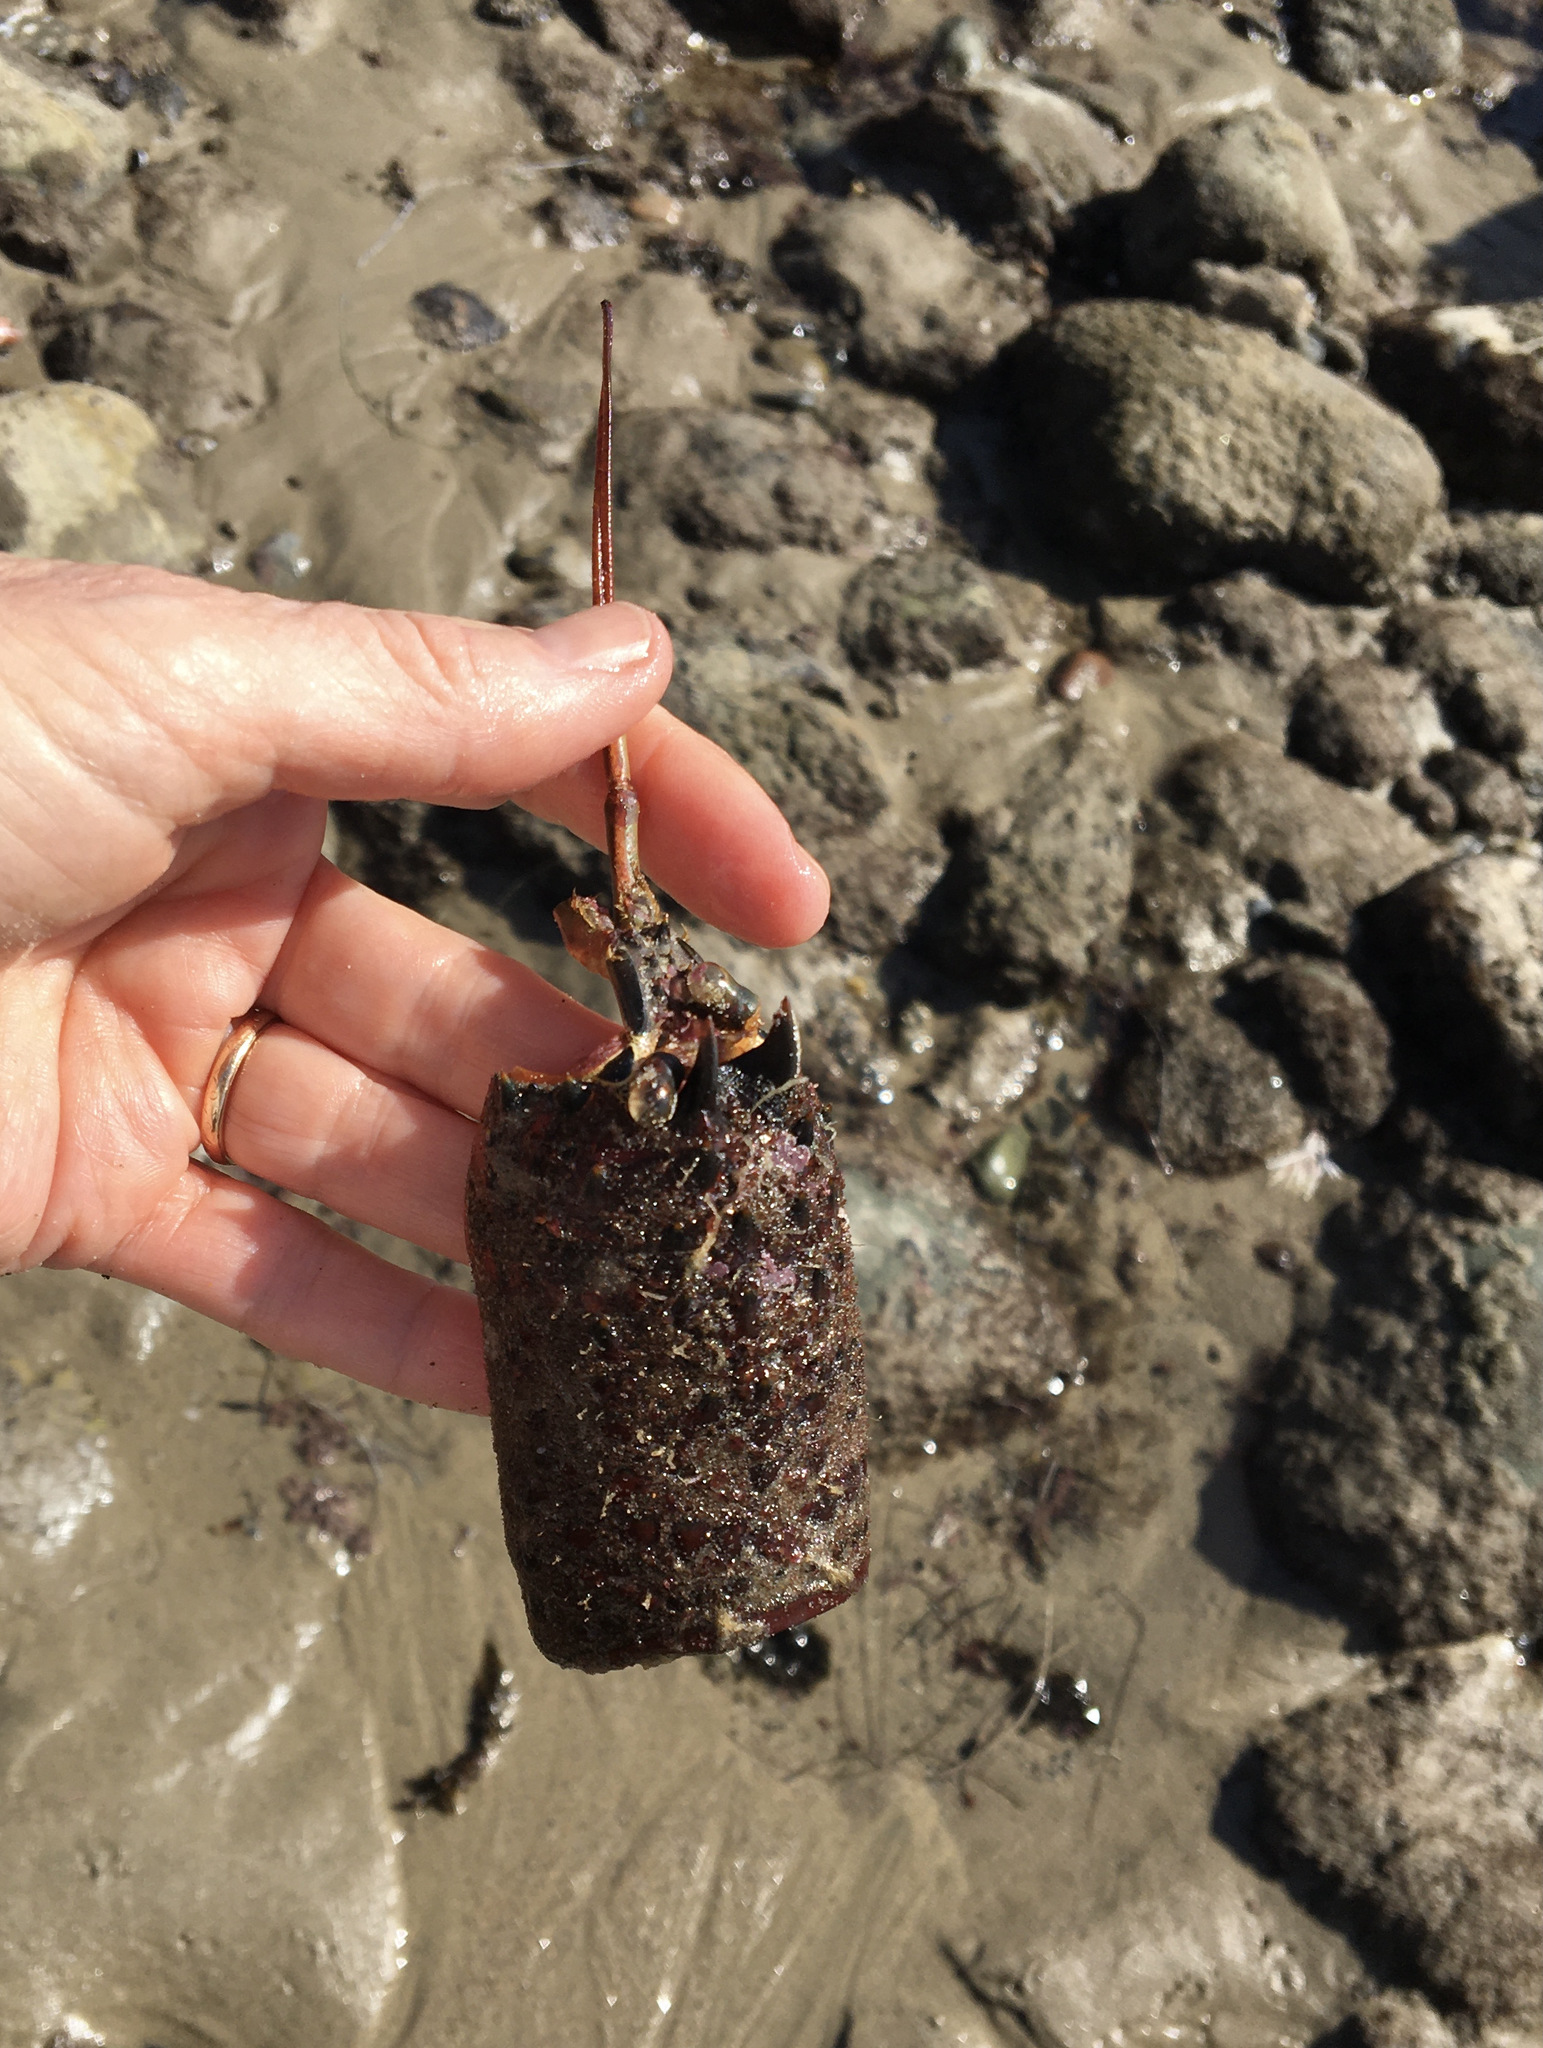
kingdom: Animalia
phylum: Arthropoda
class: Malacostraca
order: Decapoda
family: Palinuridae
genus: Panulirus
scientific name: Panulirus interruptus
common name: California spiny lobster
